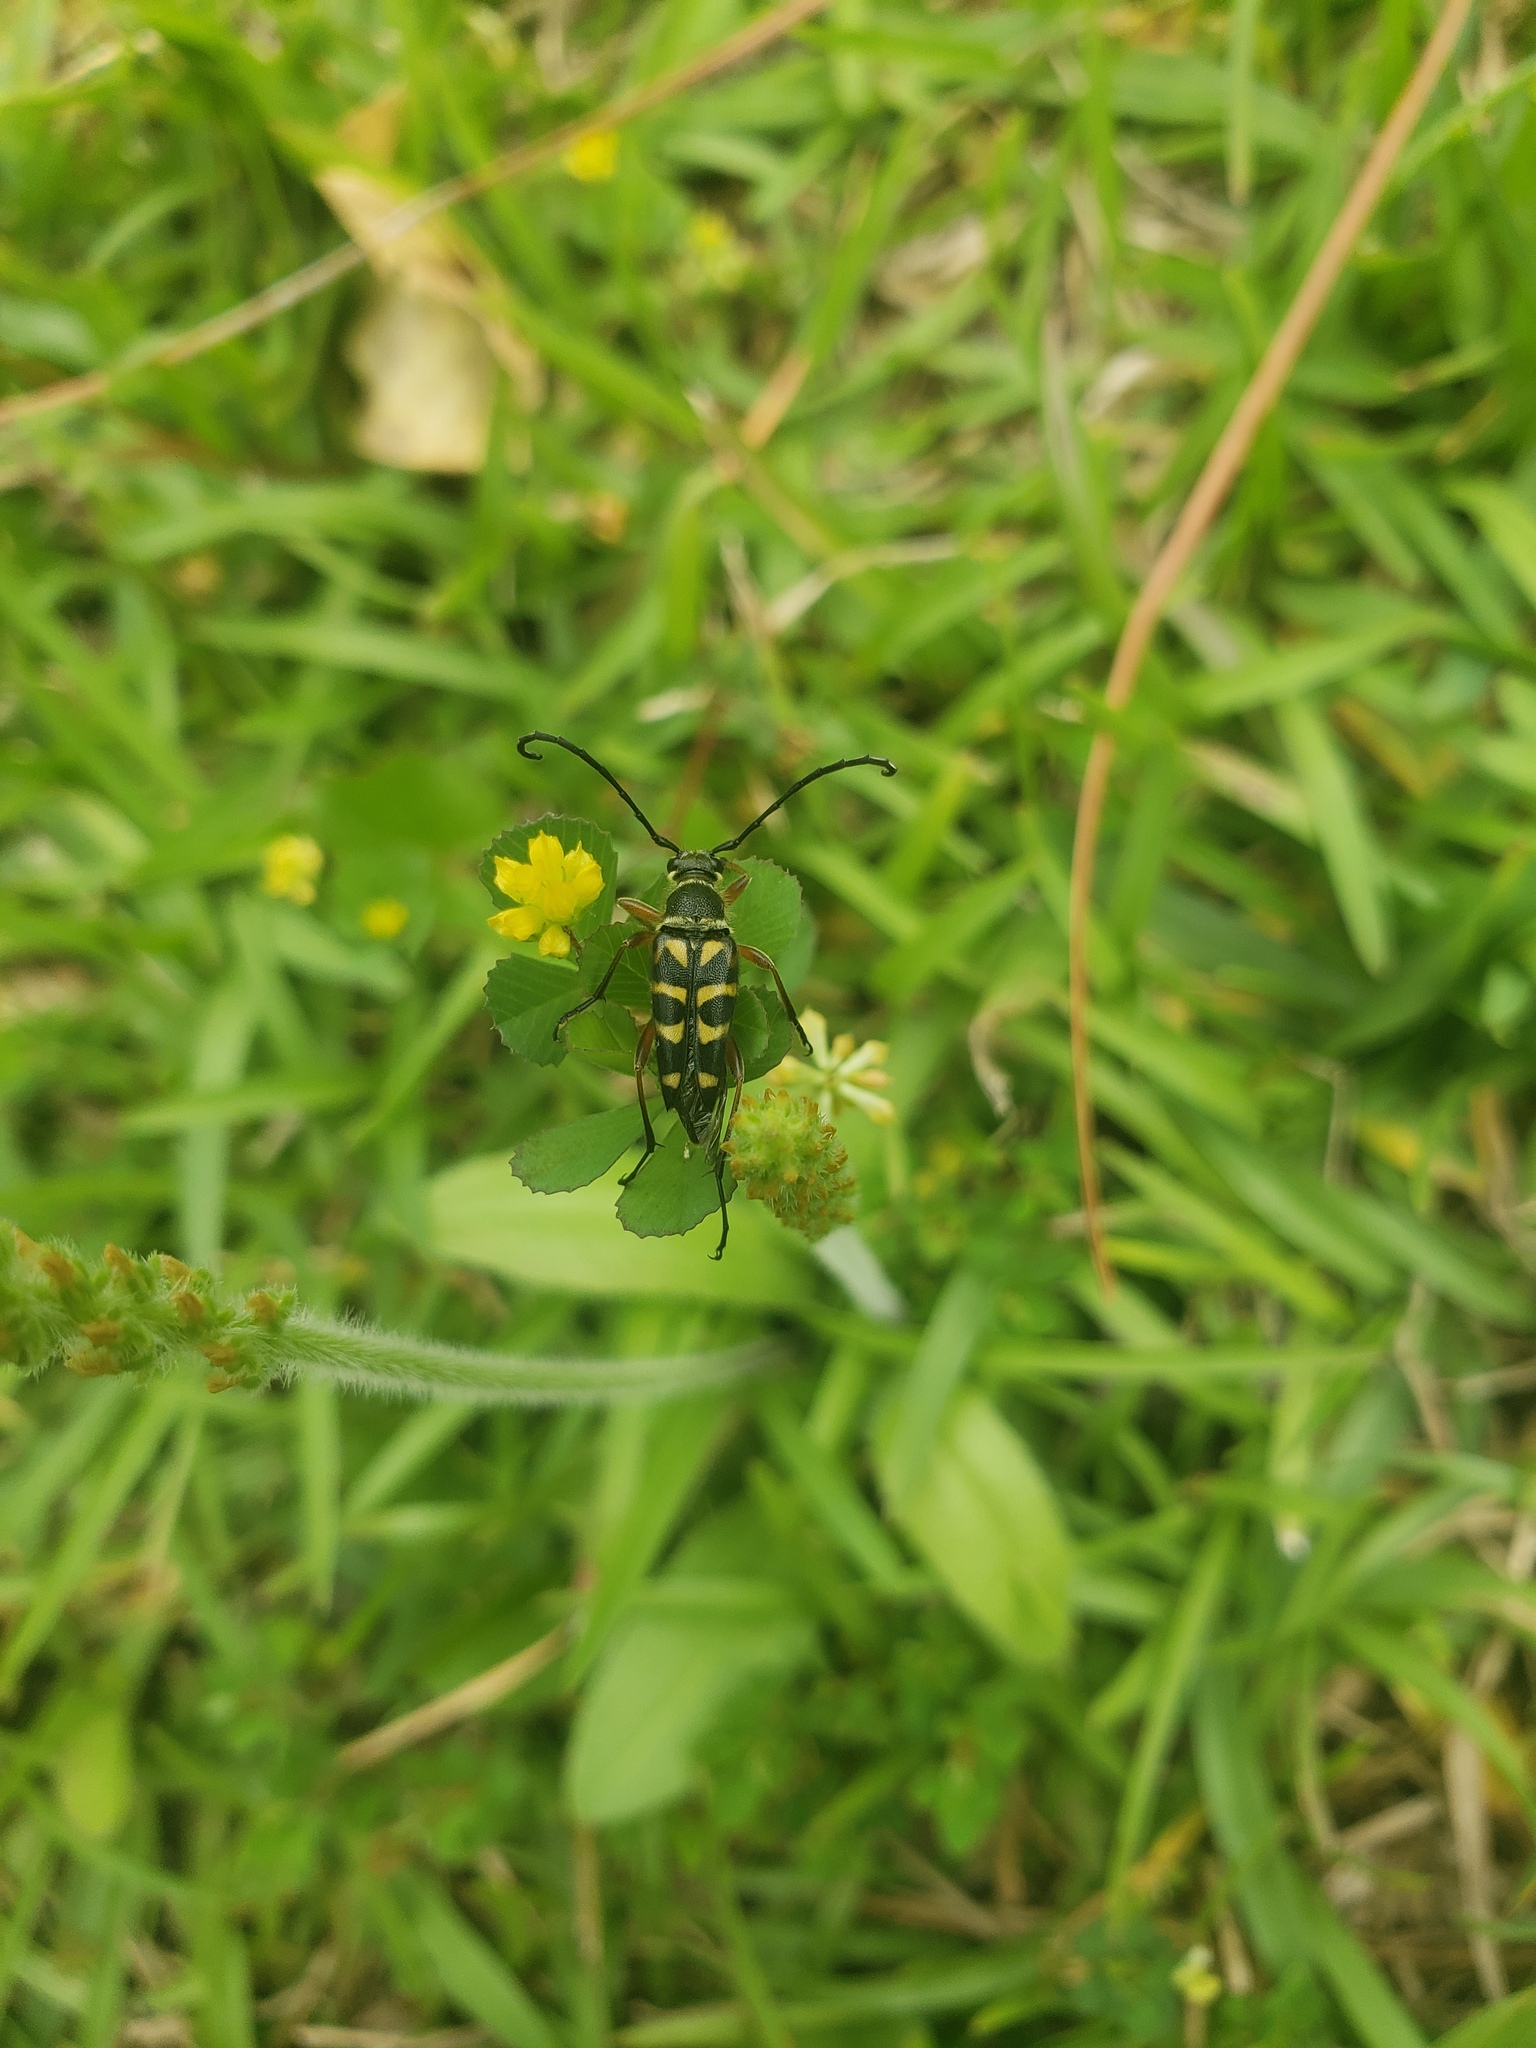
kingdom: Animalia
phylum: Arthropoda
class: Insecta
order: Coleoptera
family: Cerambycidae
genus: Typocerus
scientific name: Typocerus zebra
